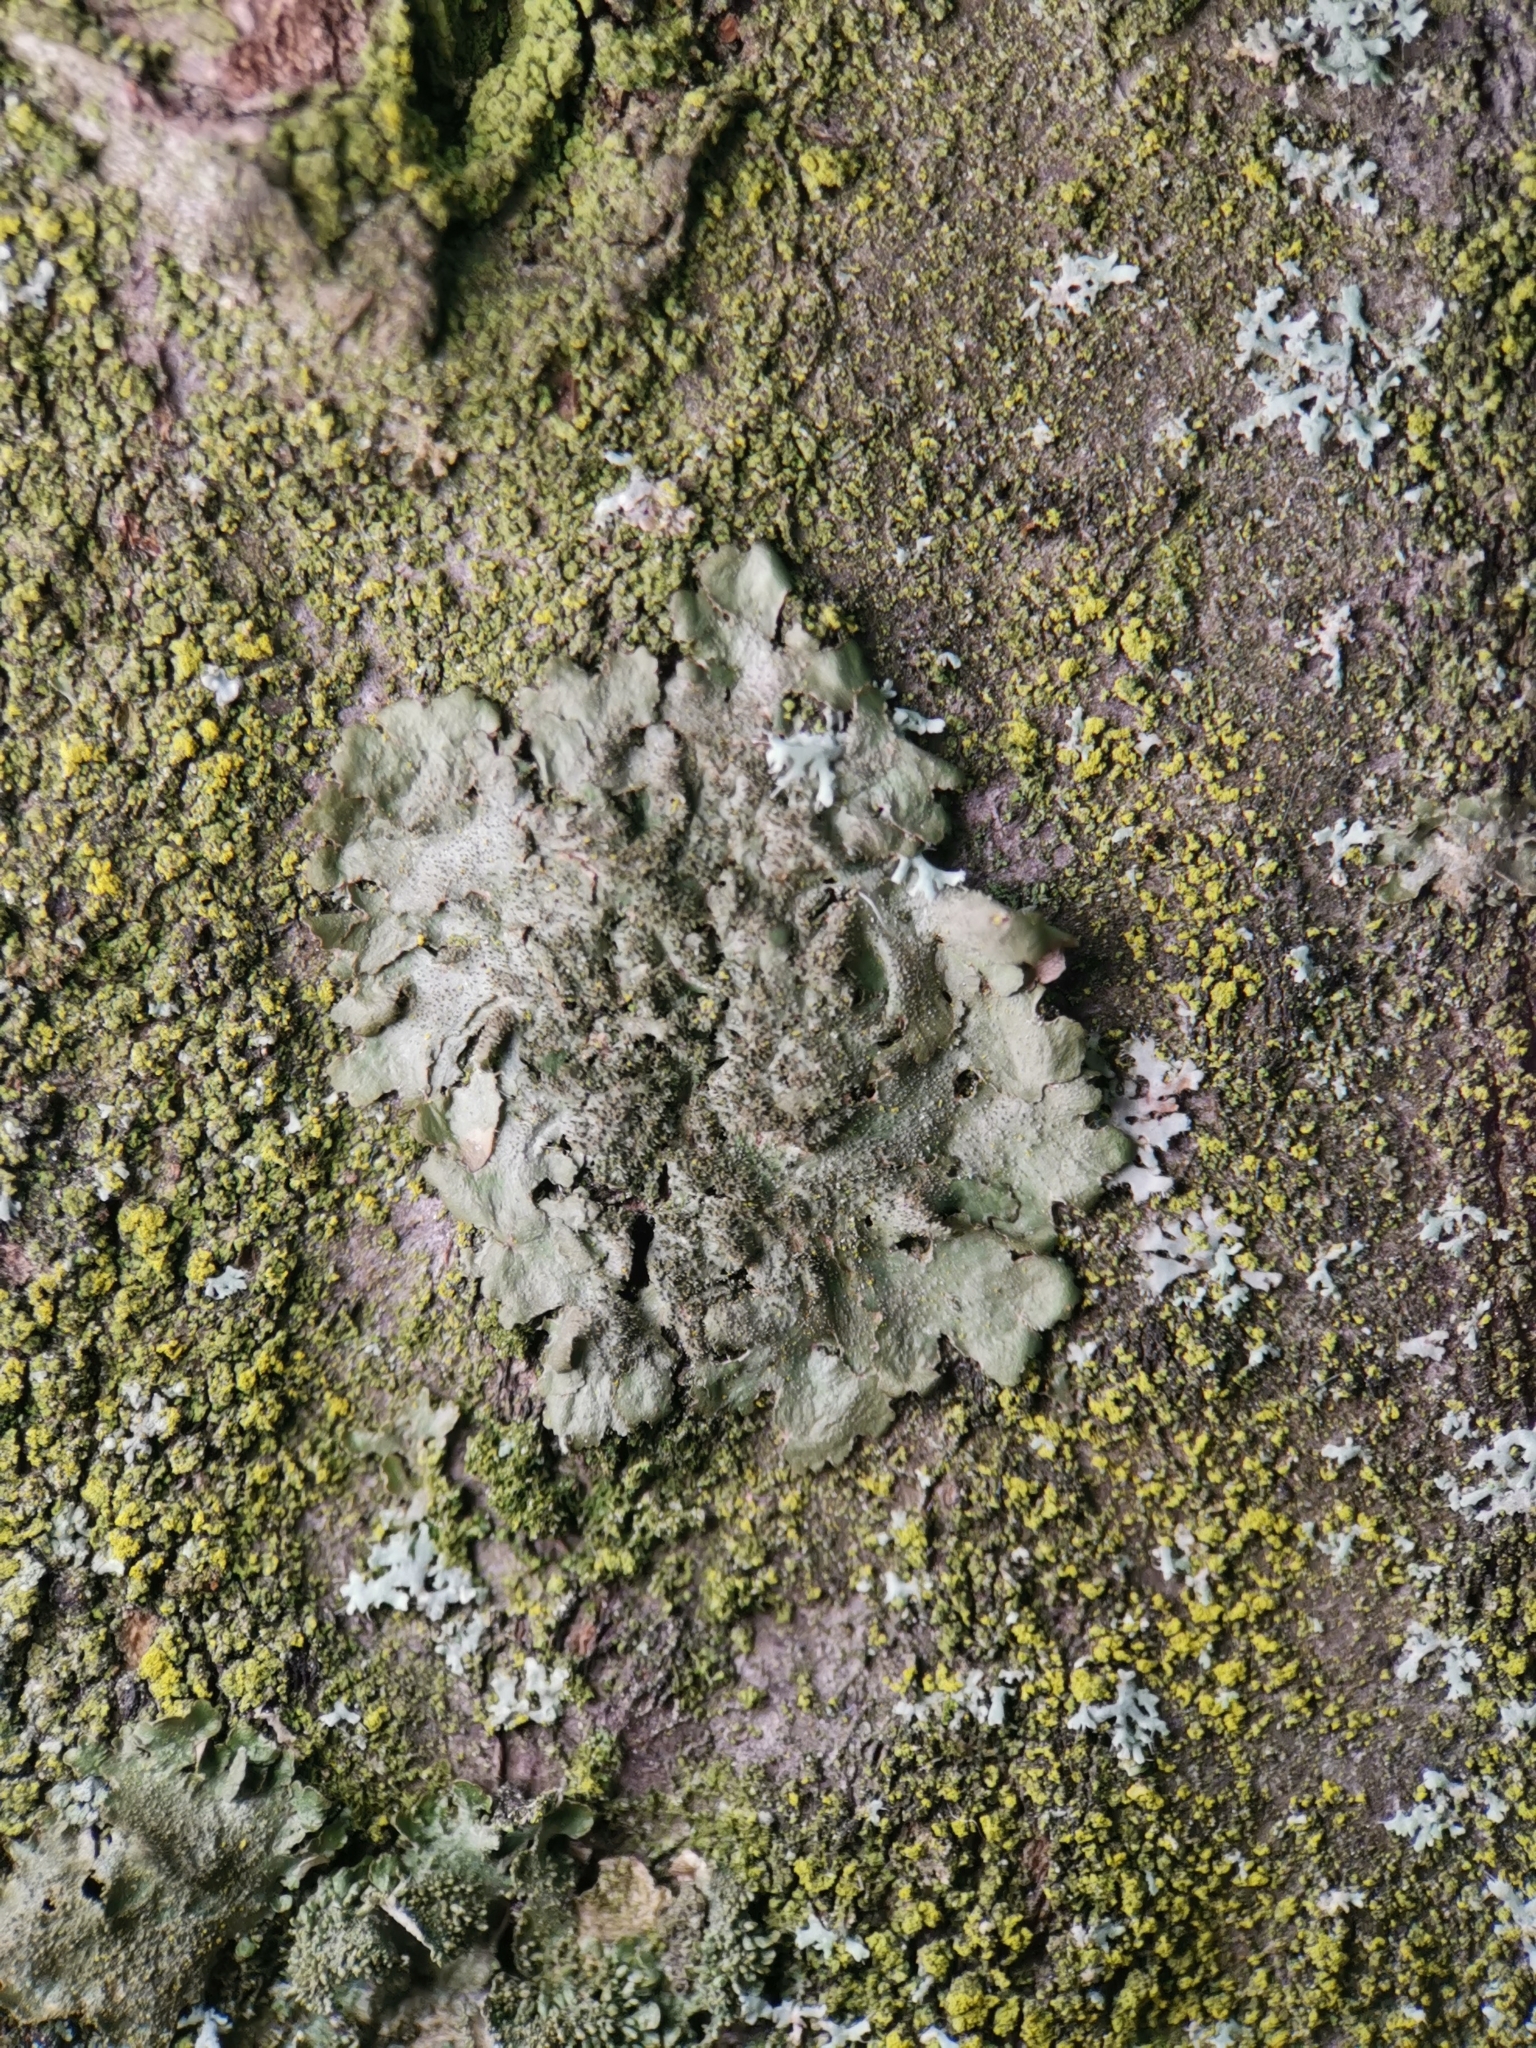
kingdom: Fungi
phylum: Ascomycota
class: Lecanoromycetes
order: Lecanorales
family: Parmeliaceae
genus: Melanohalea
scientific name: Melanohalea exasperatula
